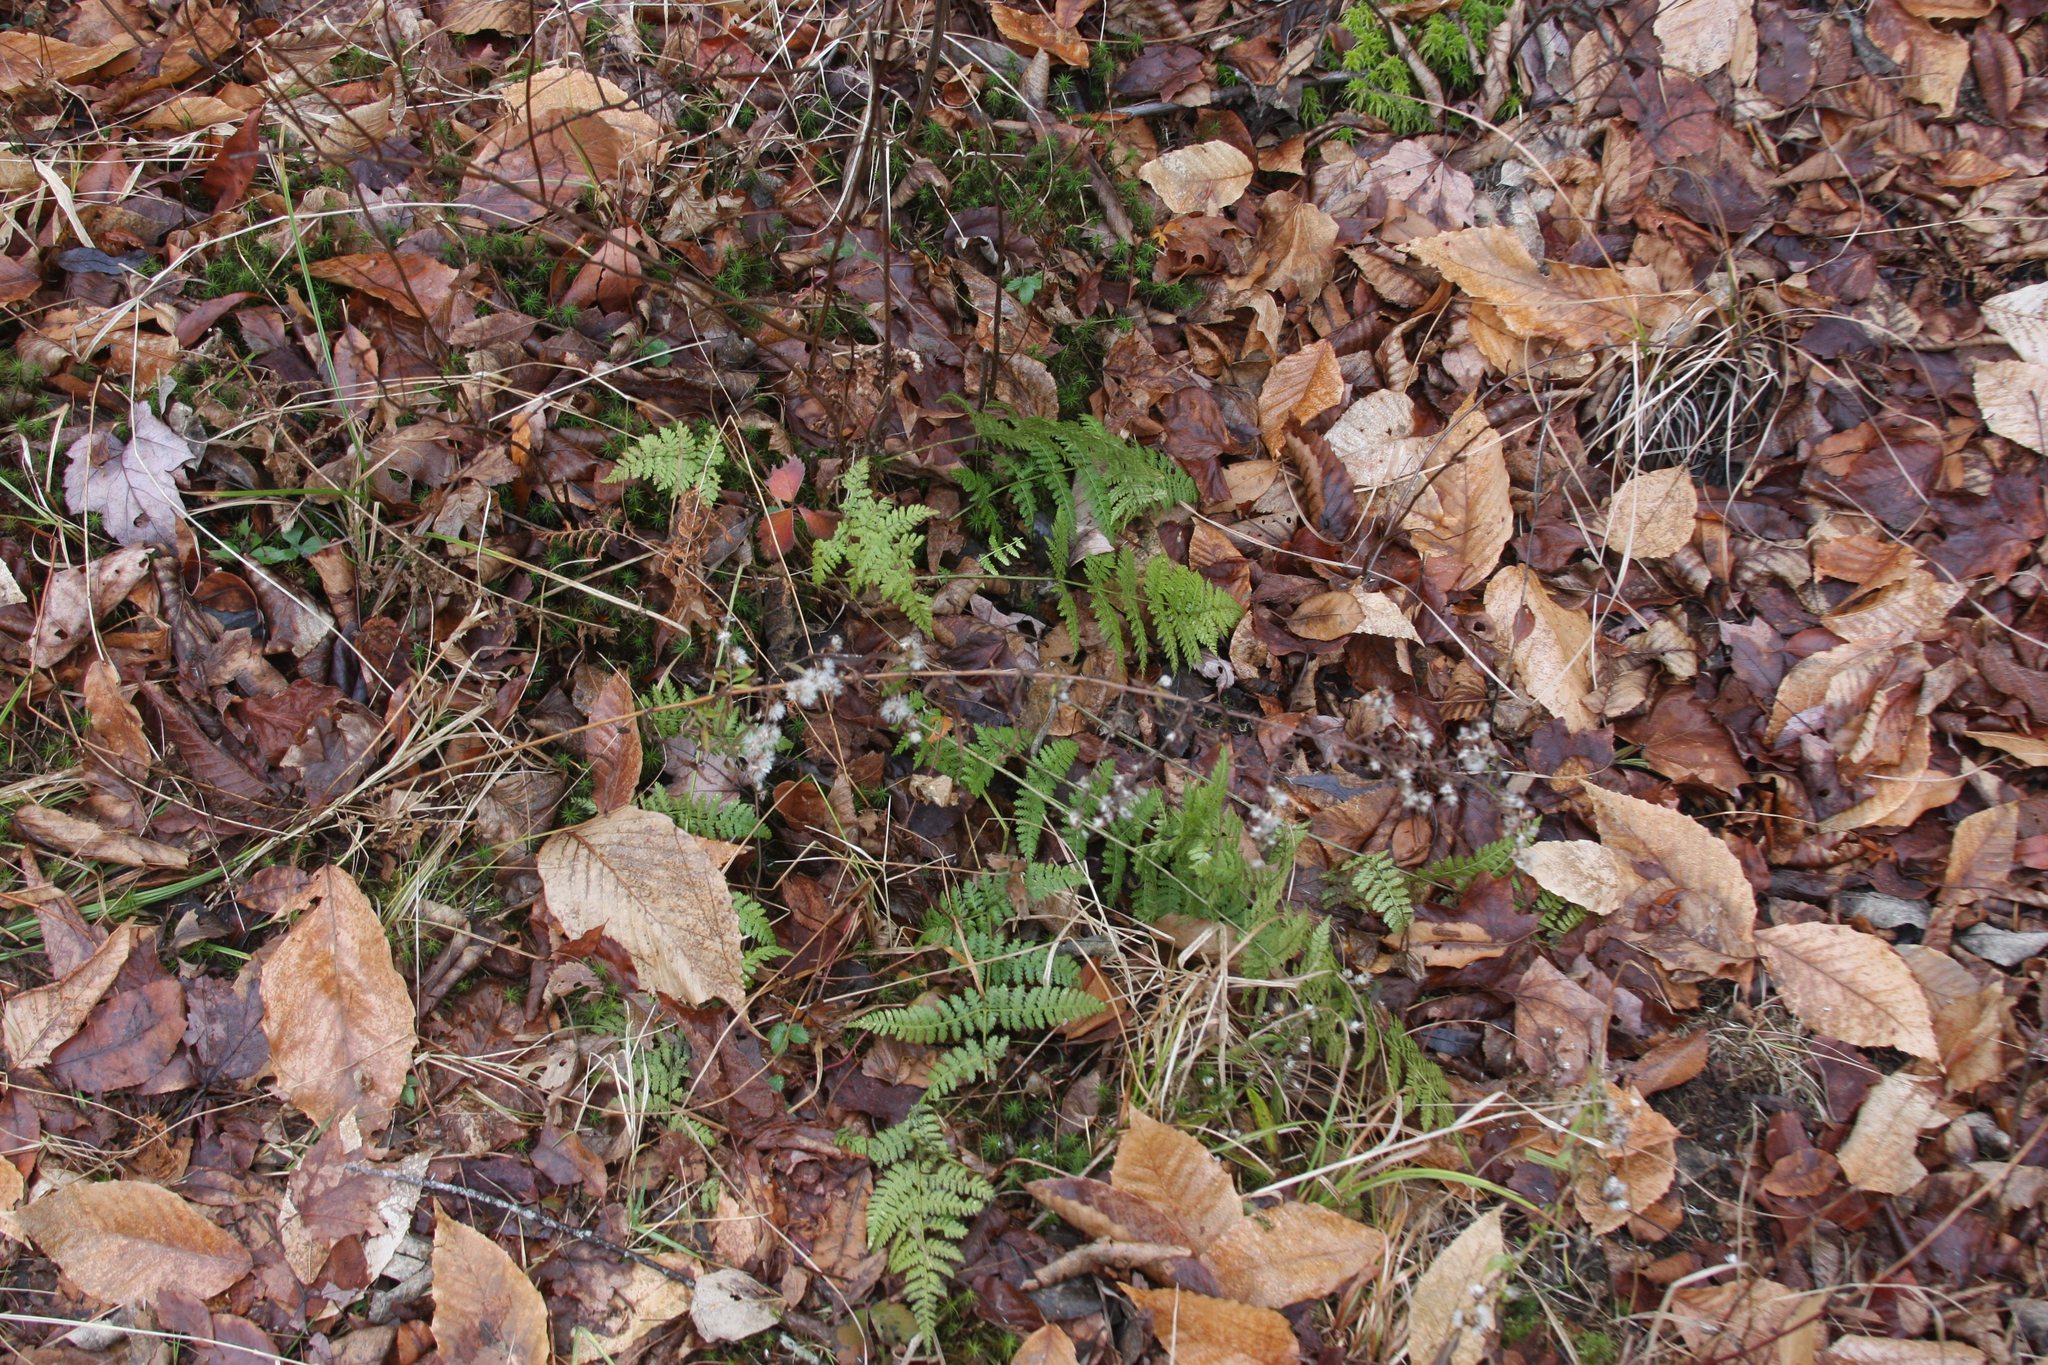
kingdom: Plantae
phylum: Tracheophyta
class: Polypodiopsida
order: Polypodiales
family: Dryopteridaceae
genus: Dryopteris
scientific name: Dryopteris intermedia
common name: Evergreen wood fern
